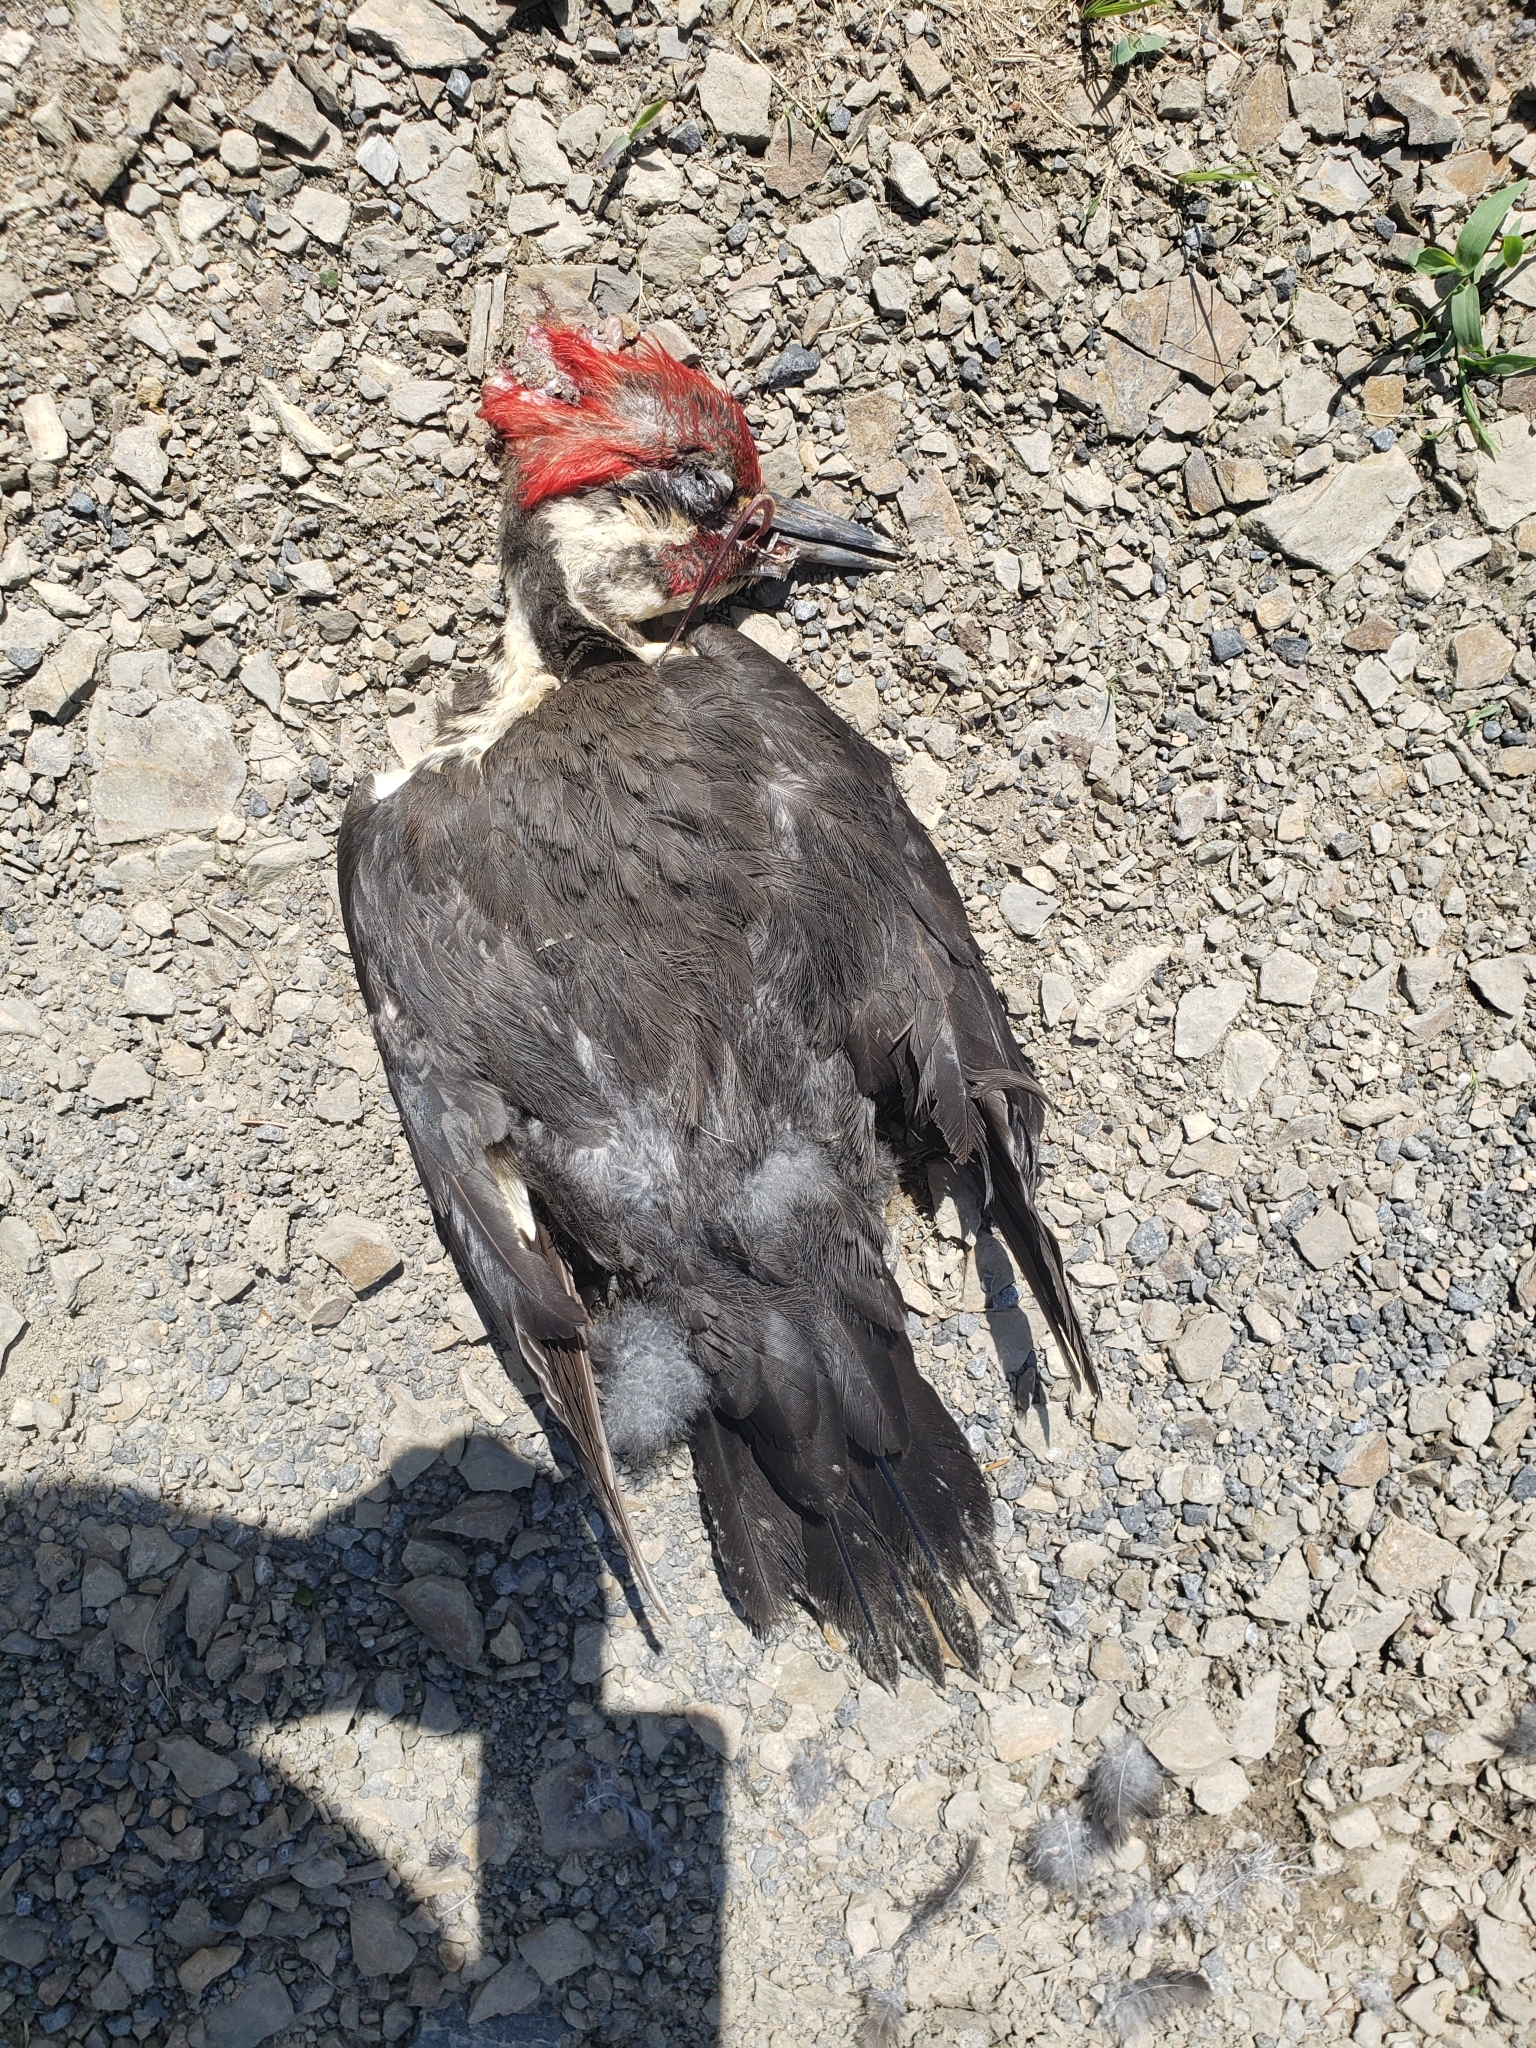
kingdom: Animalia
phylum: Chordata
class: Aves
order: Piciformes
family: Picidae
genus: Dryocopus
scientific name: Dryocopus pileatus
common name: Pileated woodpecker
